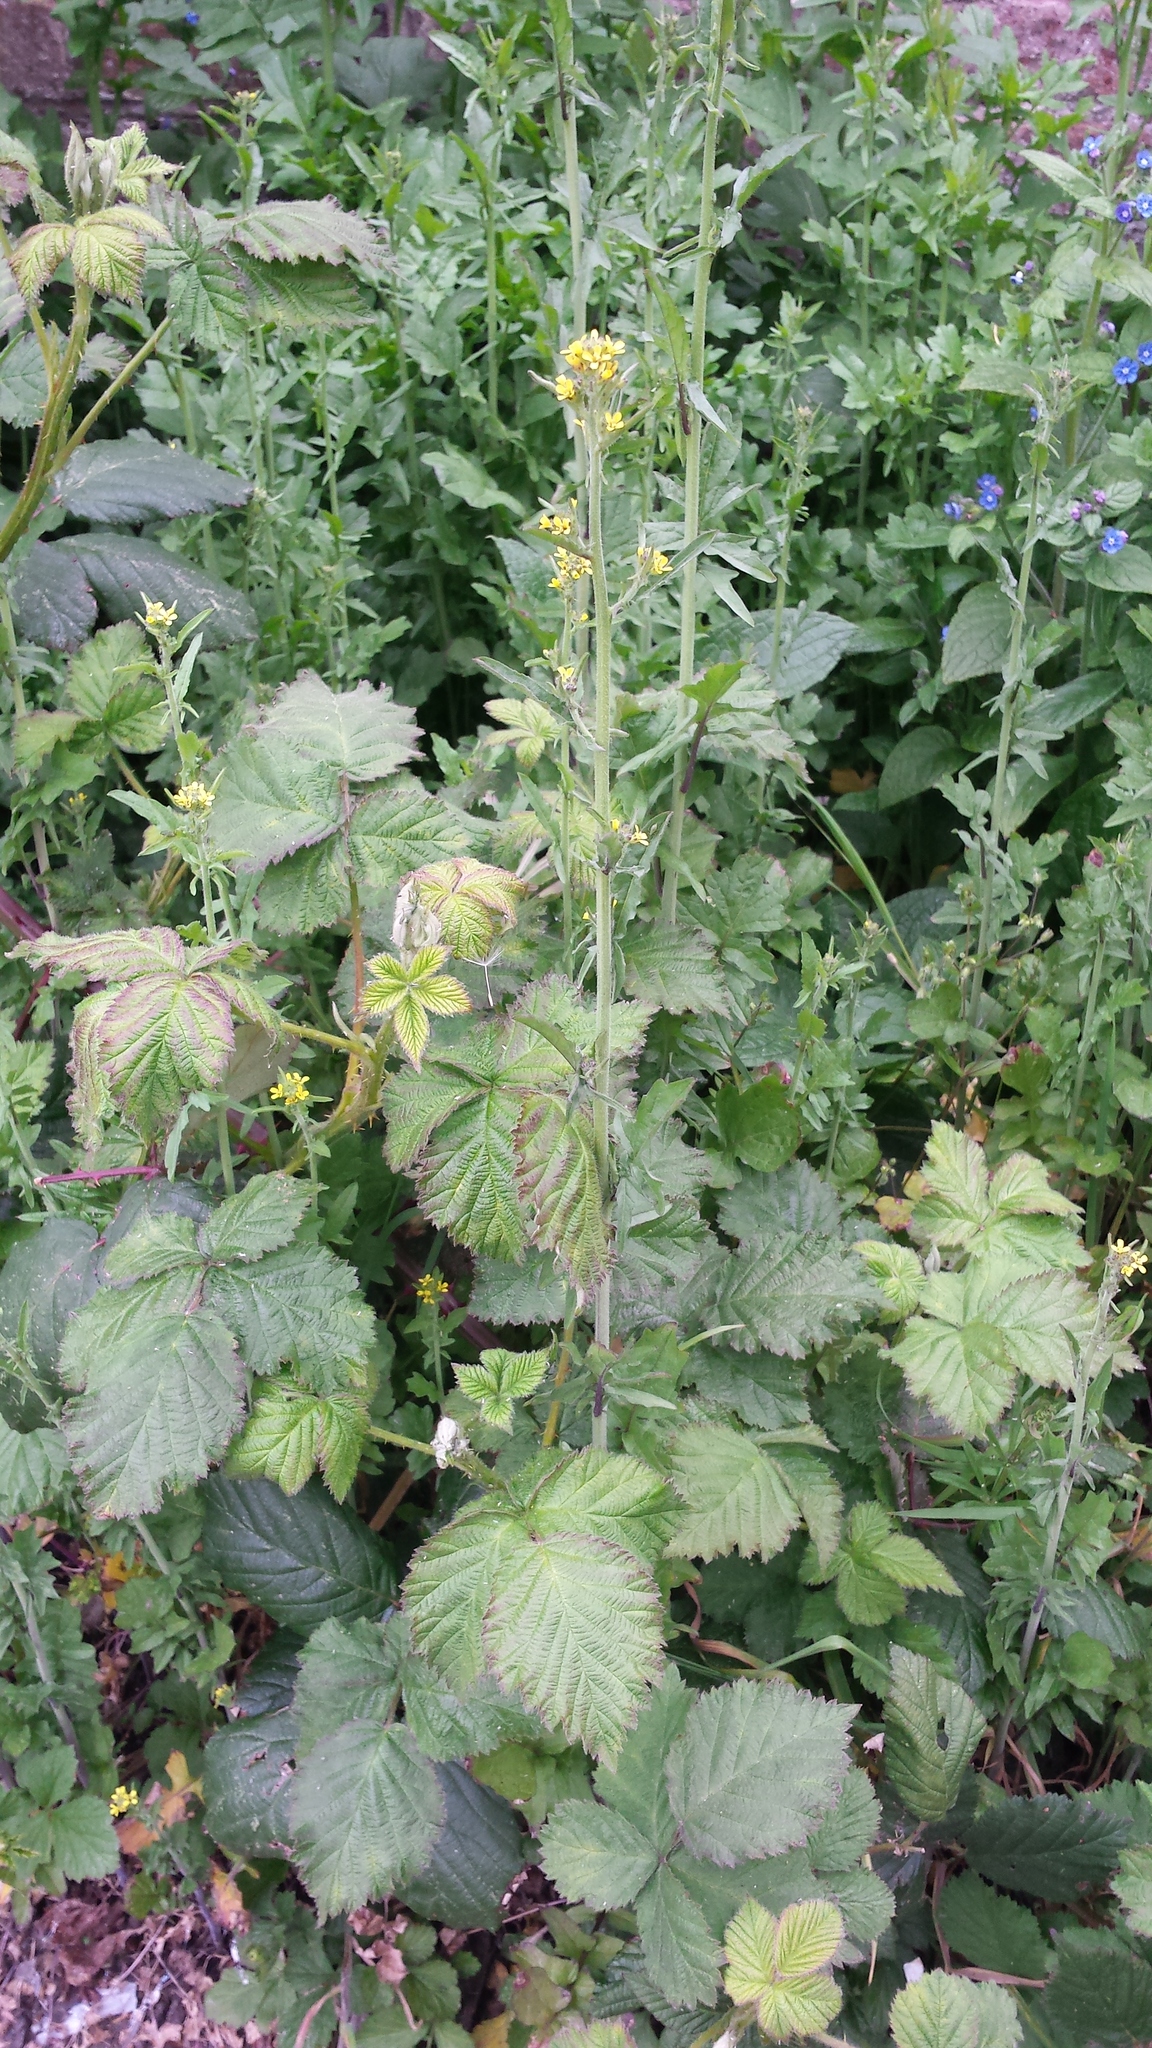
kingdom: Plantae
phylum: Tracheophyta
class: Magnoliopsida
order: Brassicales
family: Brassicaceae
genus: Sisymbrium
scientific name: Sisymbrium officinale
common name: Hedge mustard
